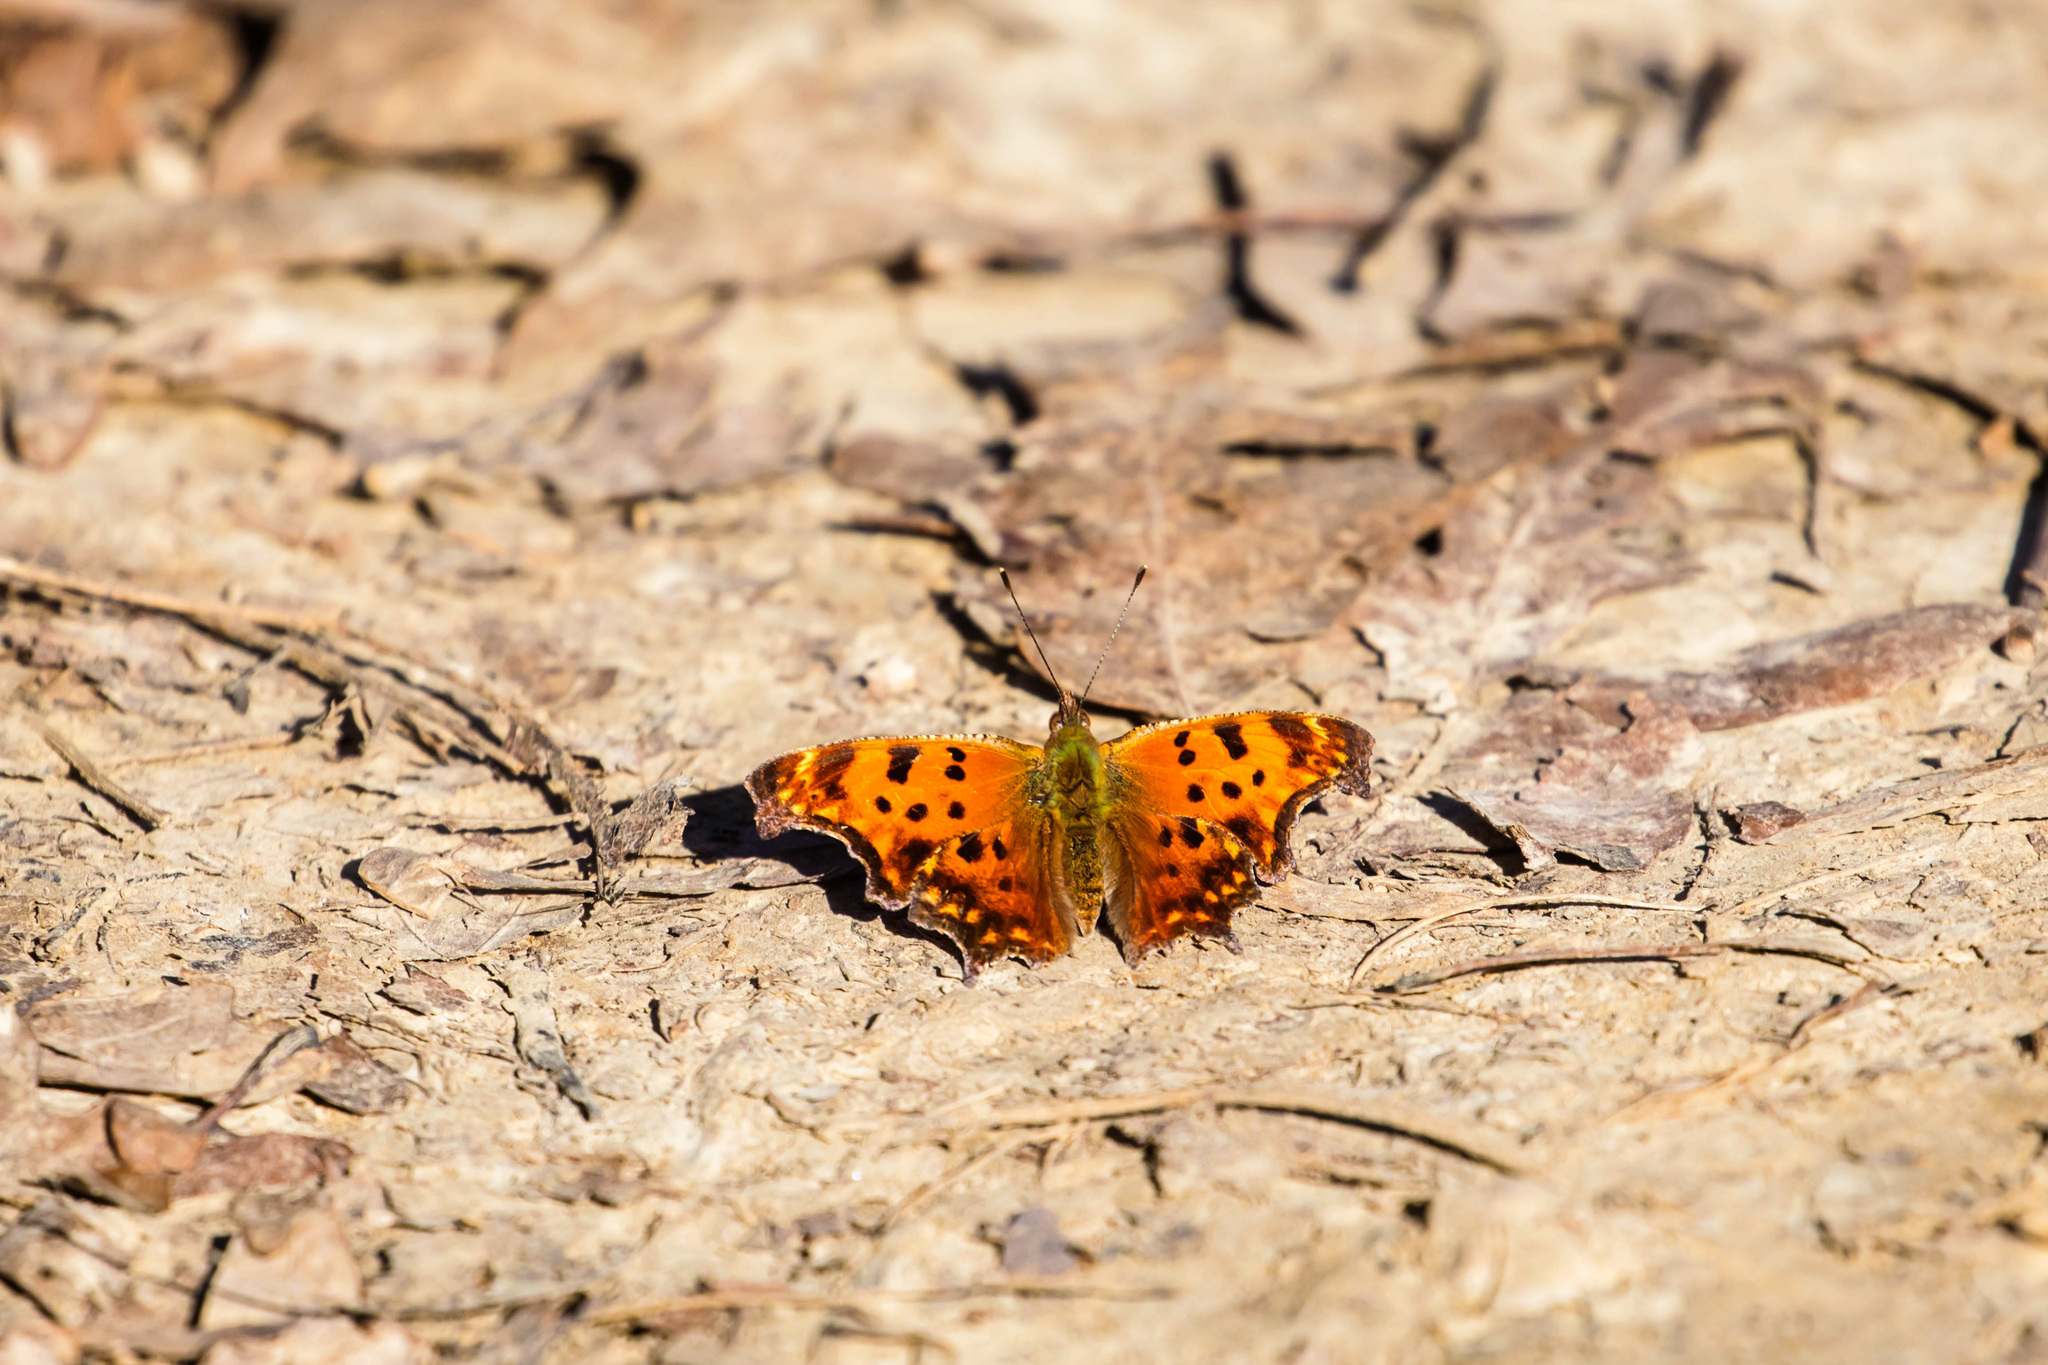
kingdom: Animalia
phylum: Arthropoda
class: Insecta
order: Lepidoptera
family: Nymphalidae
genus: Polygonia
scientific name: Polygonia comma
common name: Eastern comma
